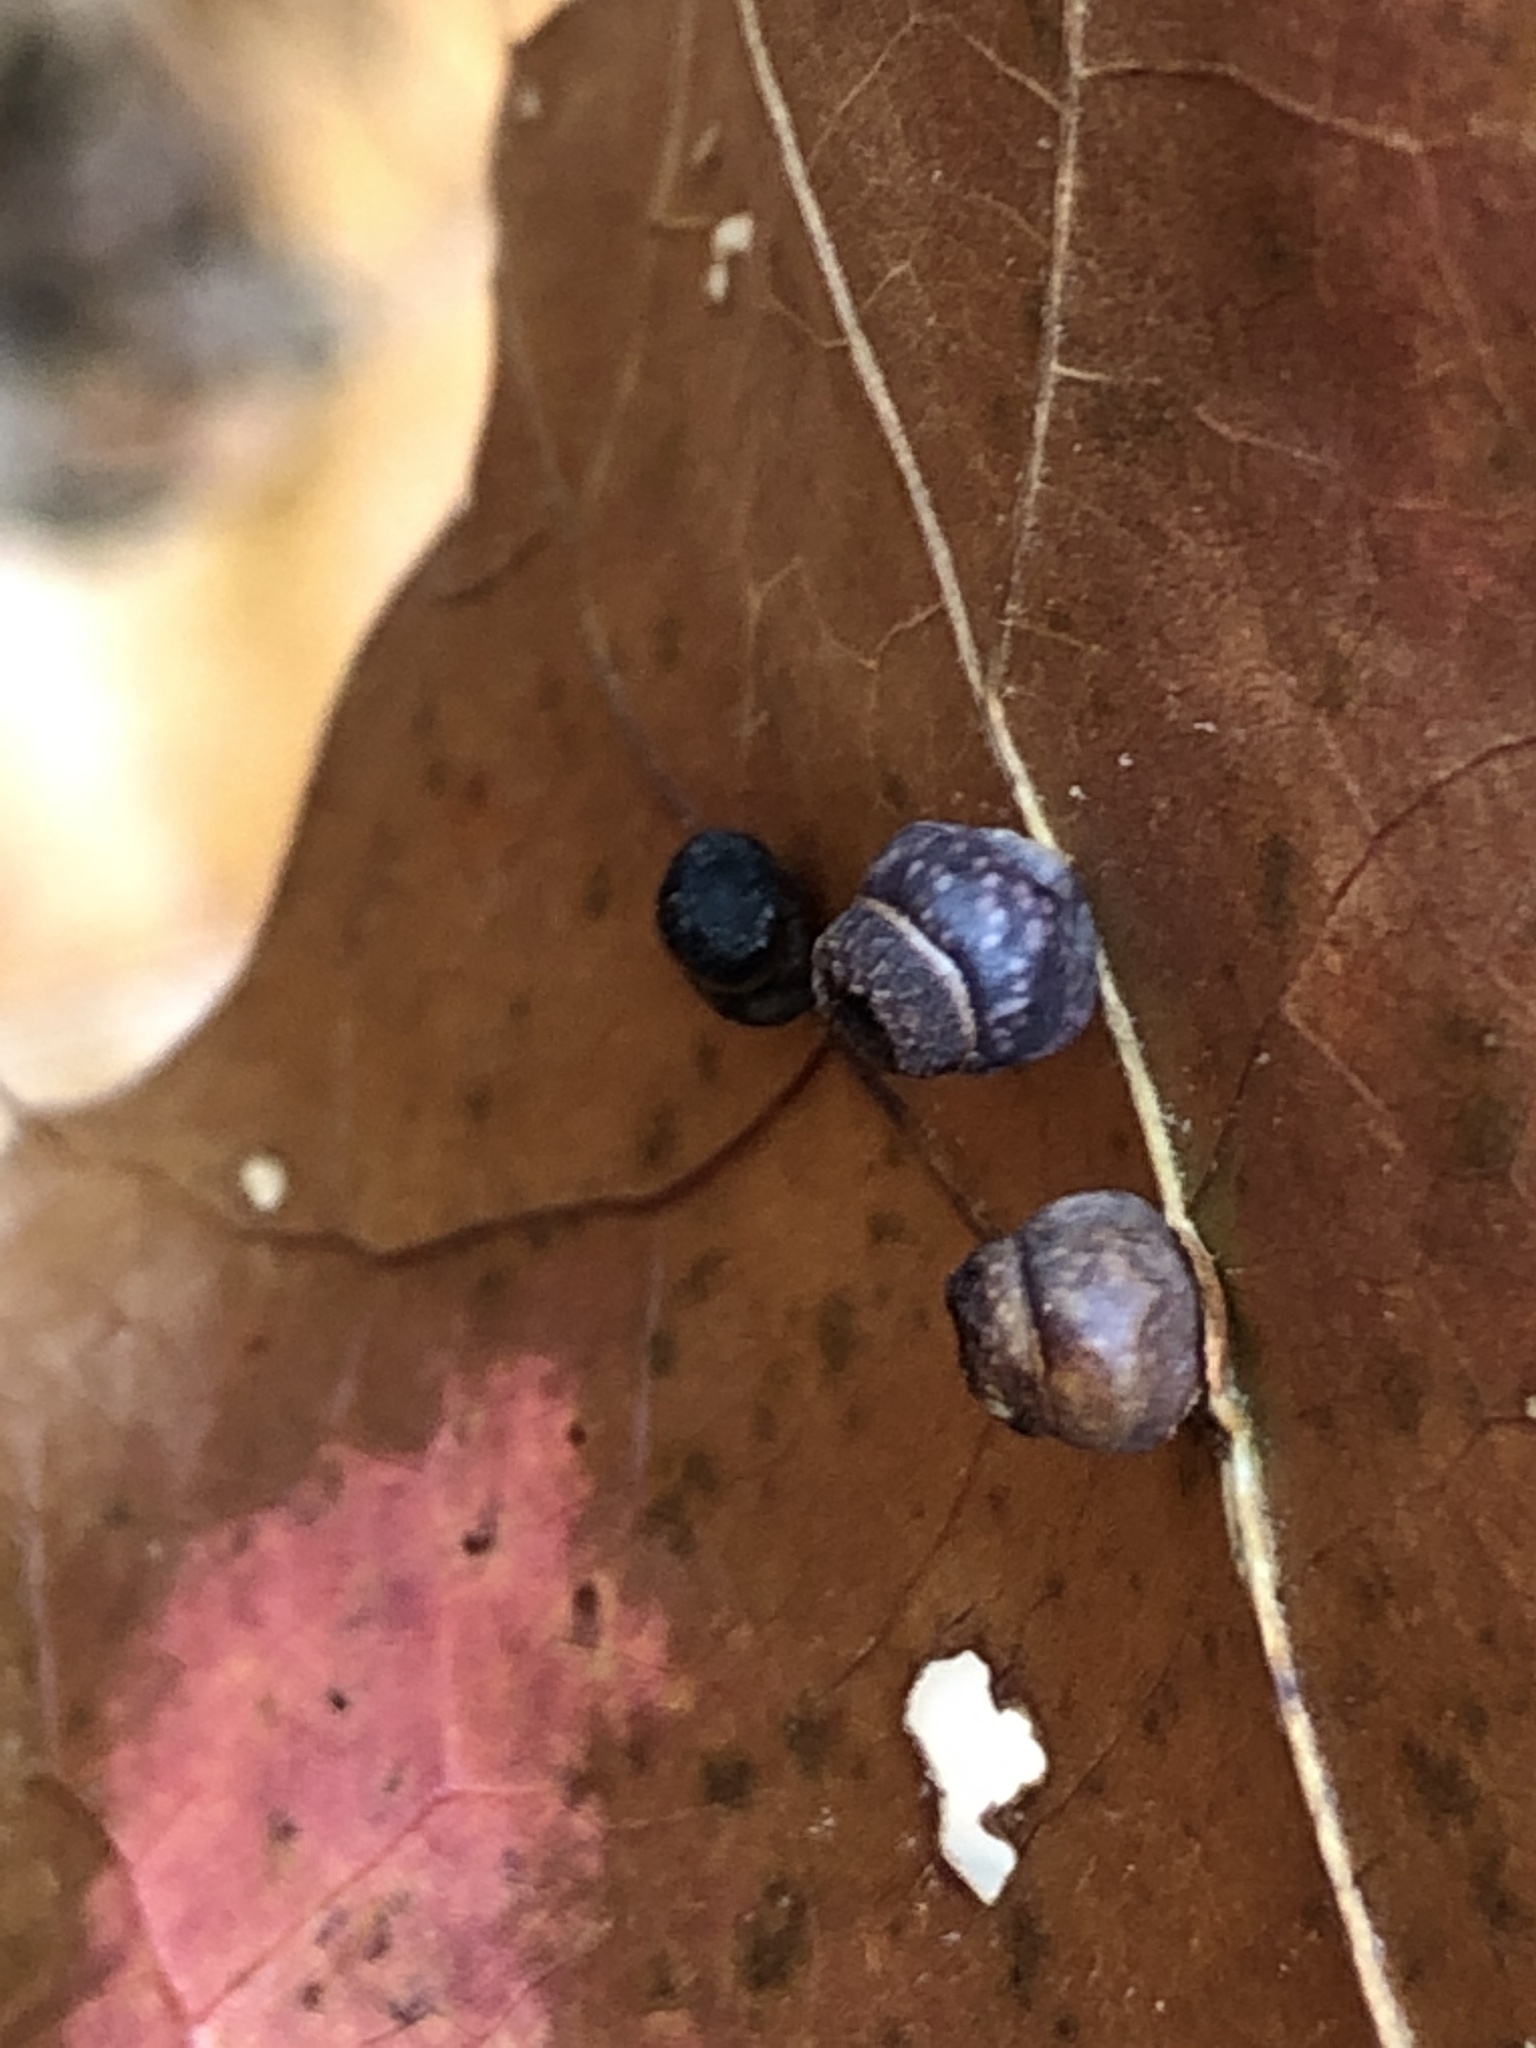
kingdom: Animalia
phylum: Arthropoda
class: Insecta
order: Hymenoptera
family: Cynipidae
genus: Kokkocynips
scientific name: Kokkocynips rileyi
